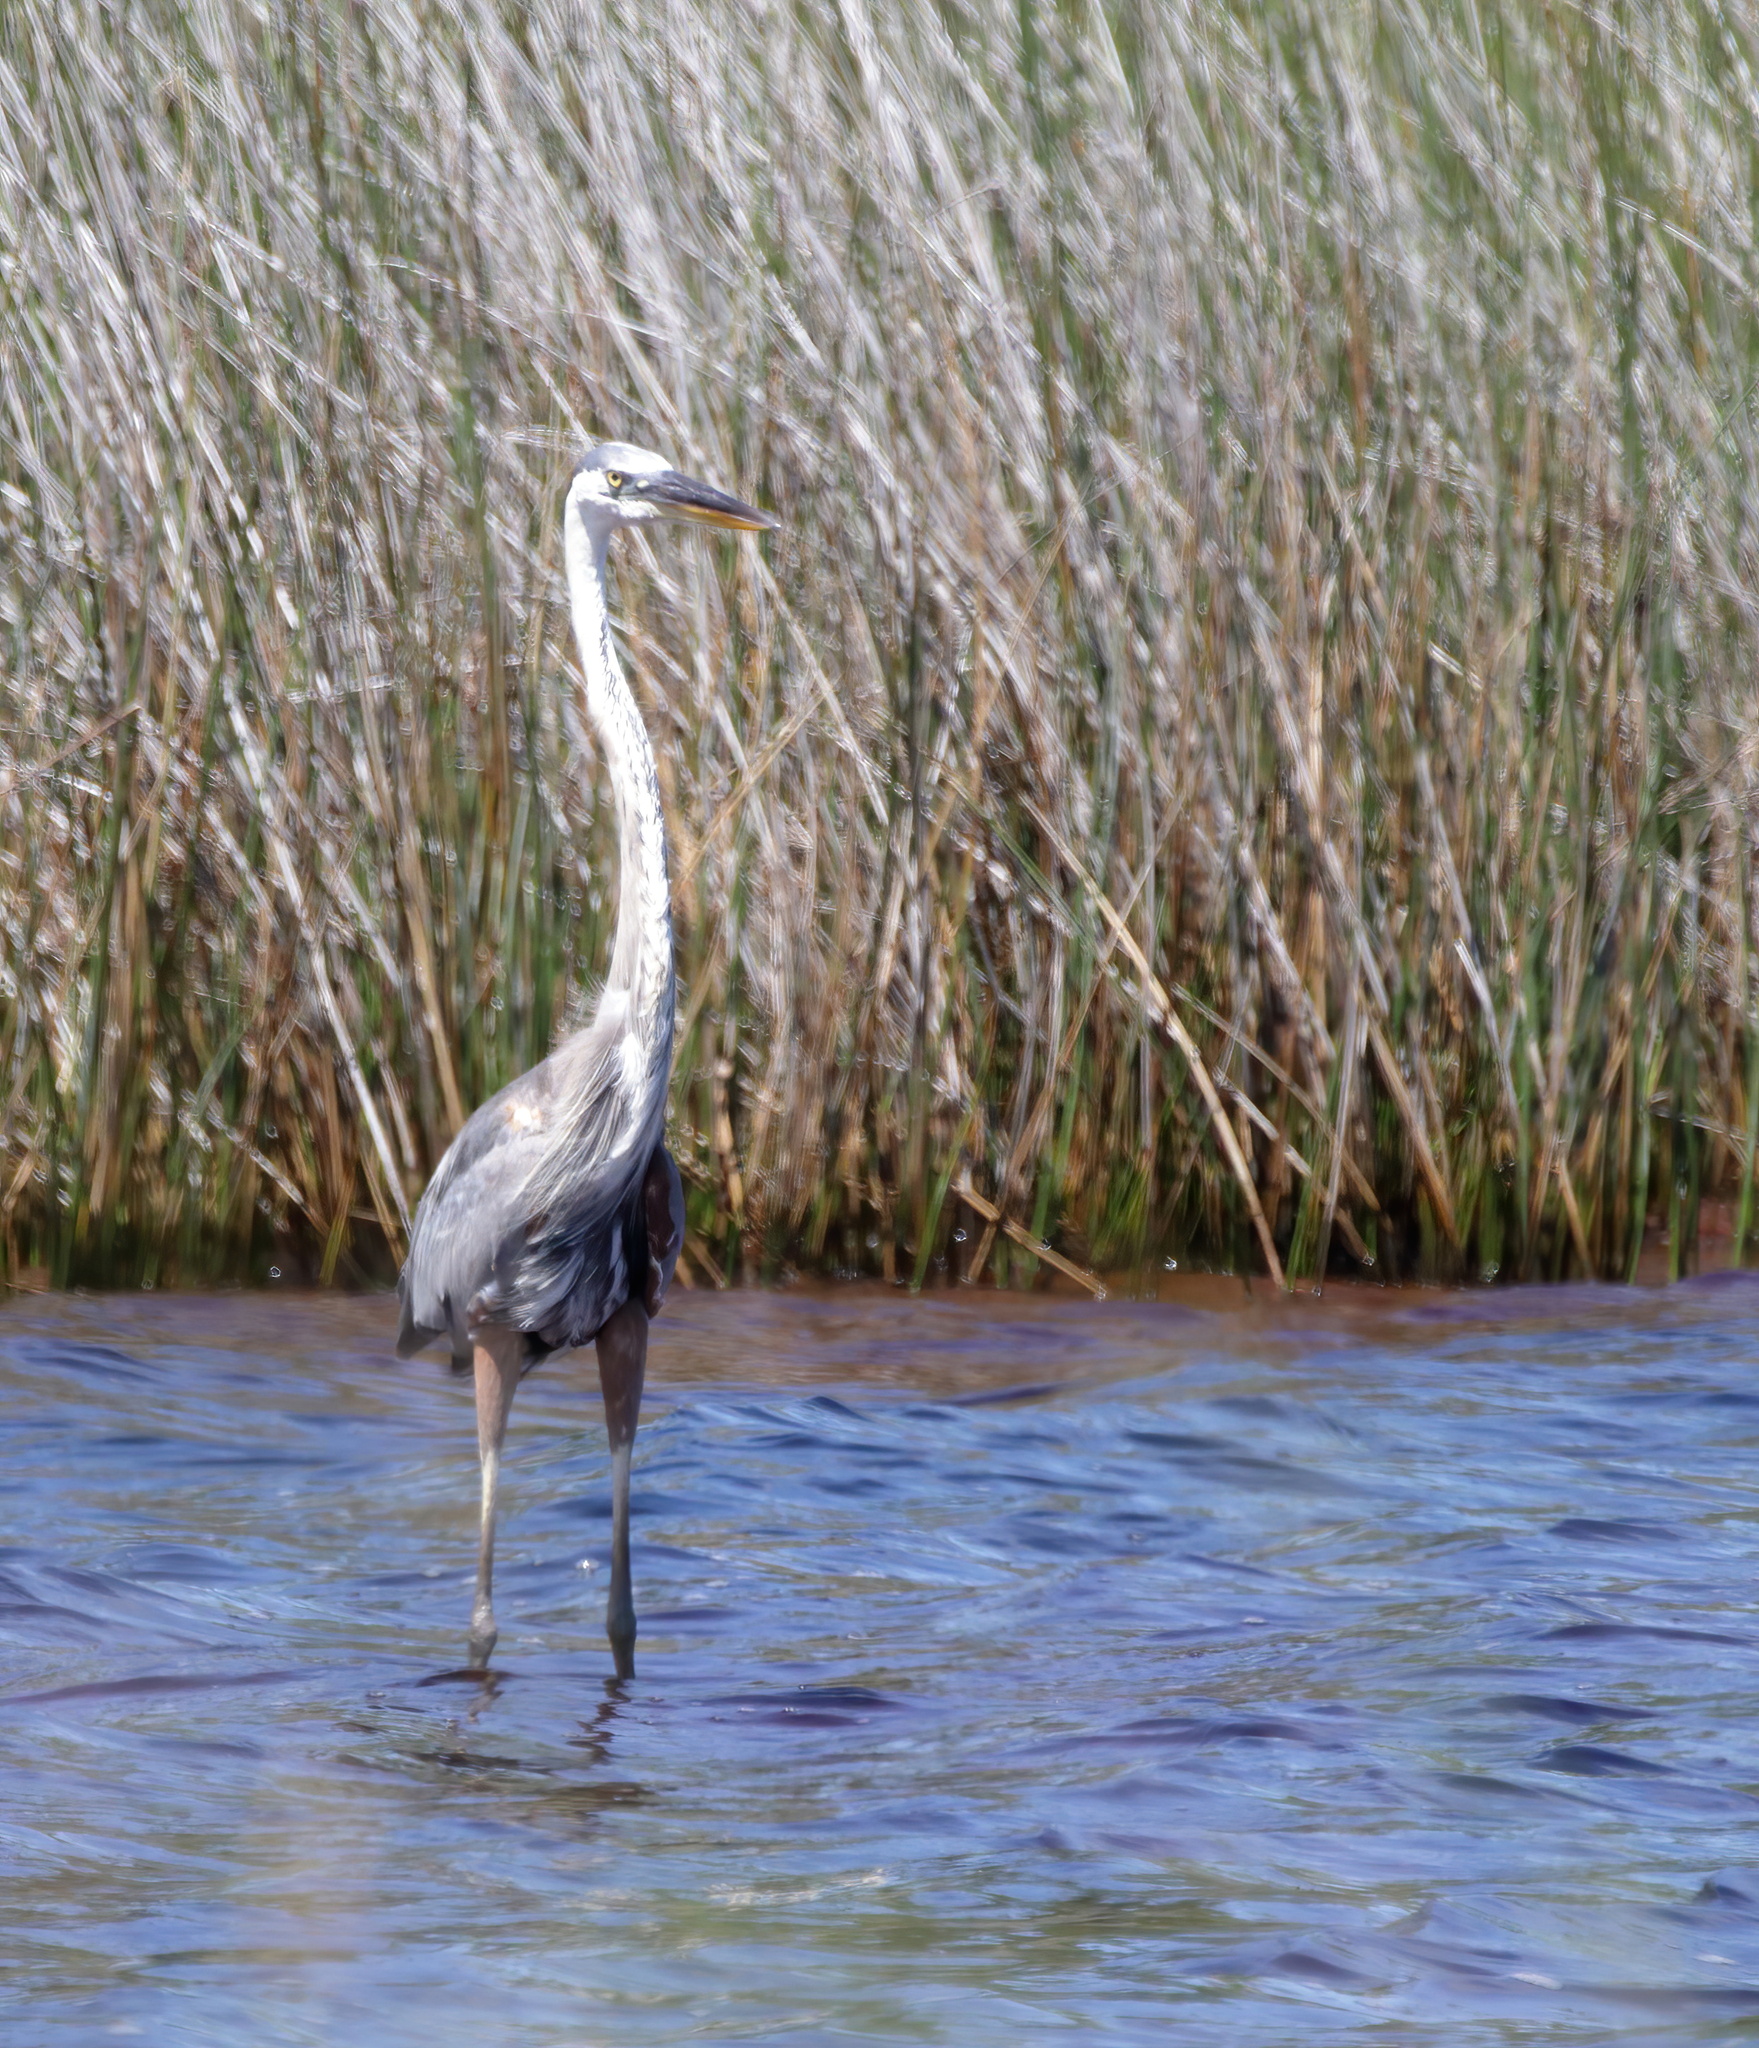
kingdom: Animalia
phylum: Chordata
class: Aves
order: Pelecaniformes
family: Ardeidae
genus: Ardea
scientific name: Ardea herodias
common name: Great blue heron
